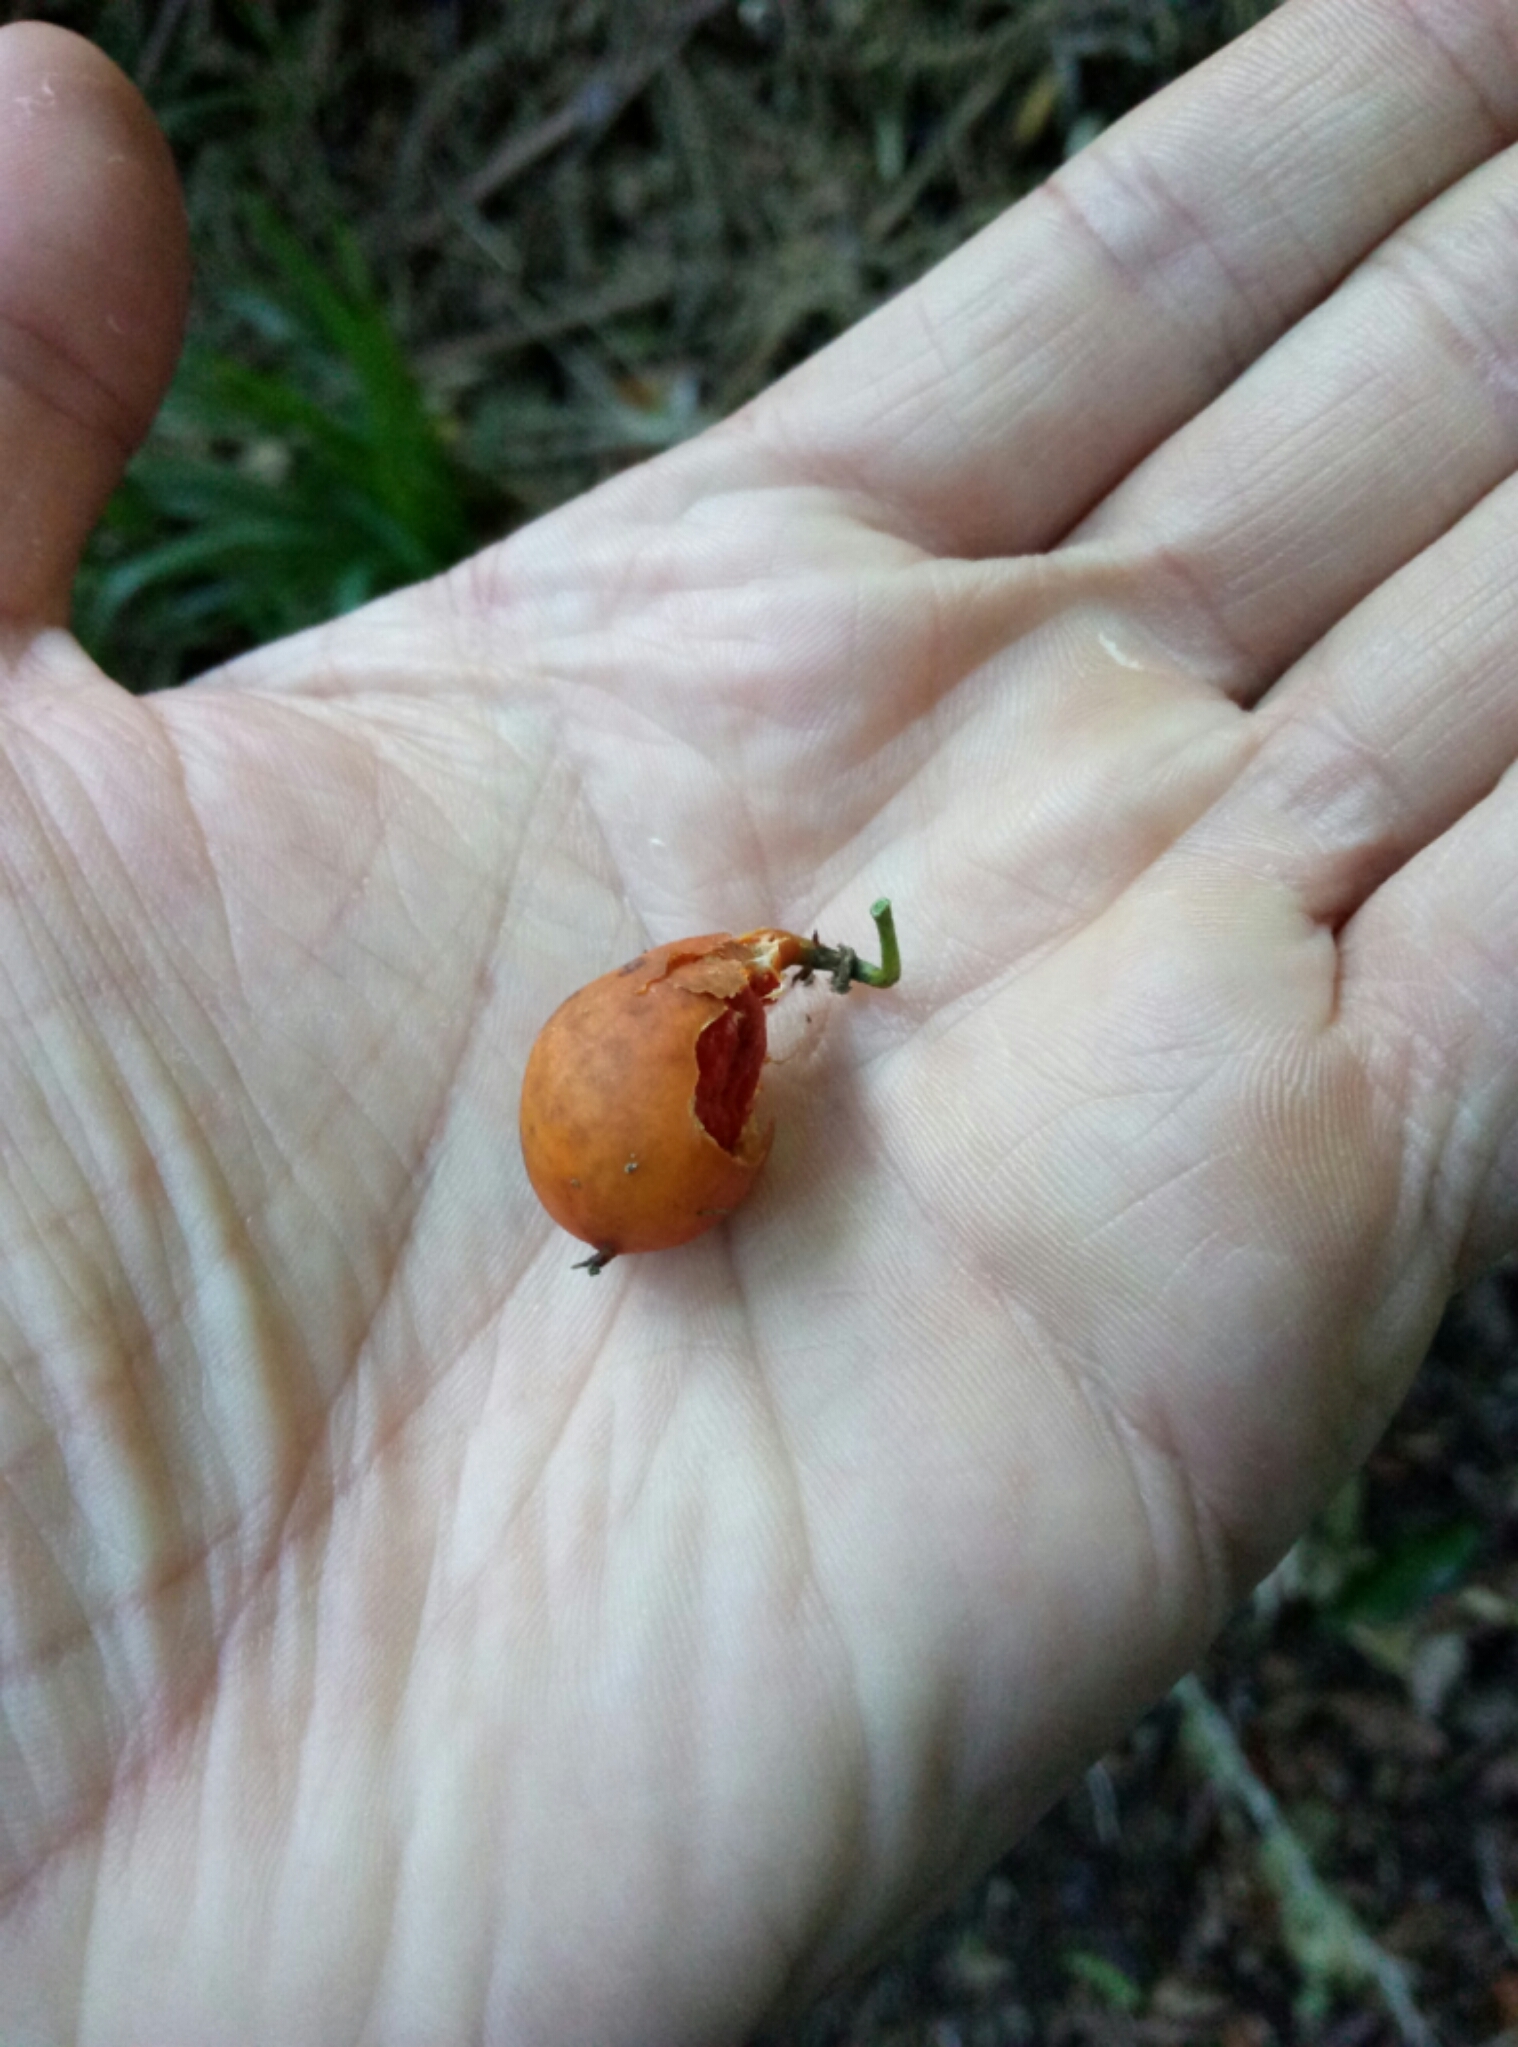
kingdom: Plantae
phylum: Tracheophyta
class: Magnoliopsida
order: Malpighiales
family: Passifloraceae
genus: Passiflora
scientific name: Passiflora tetrandra
